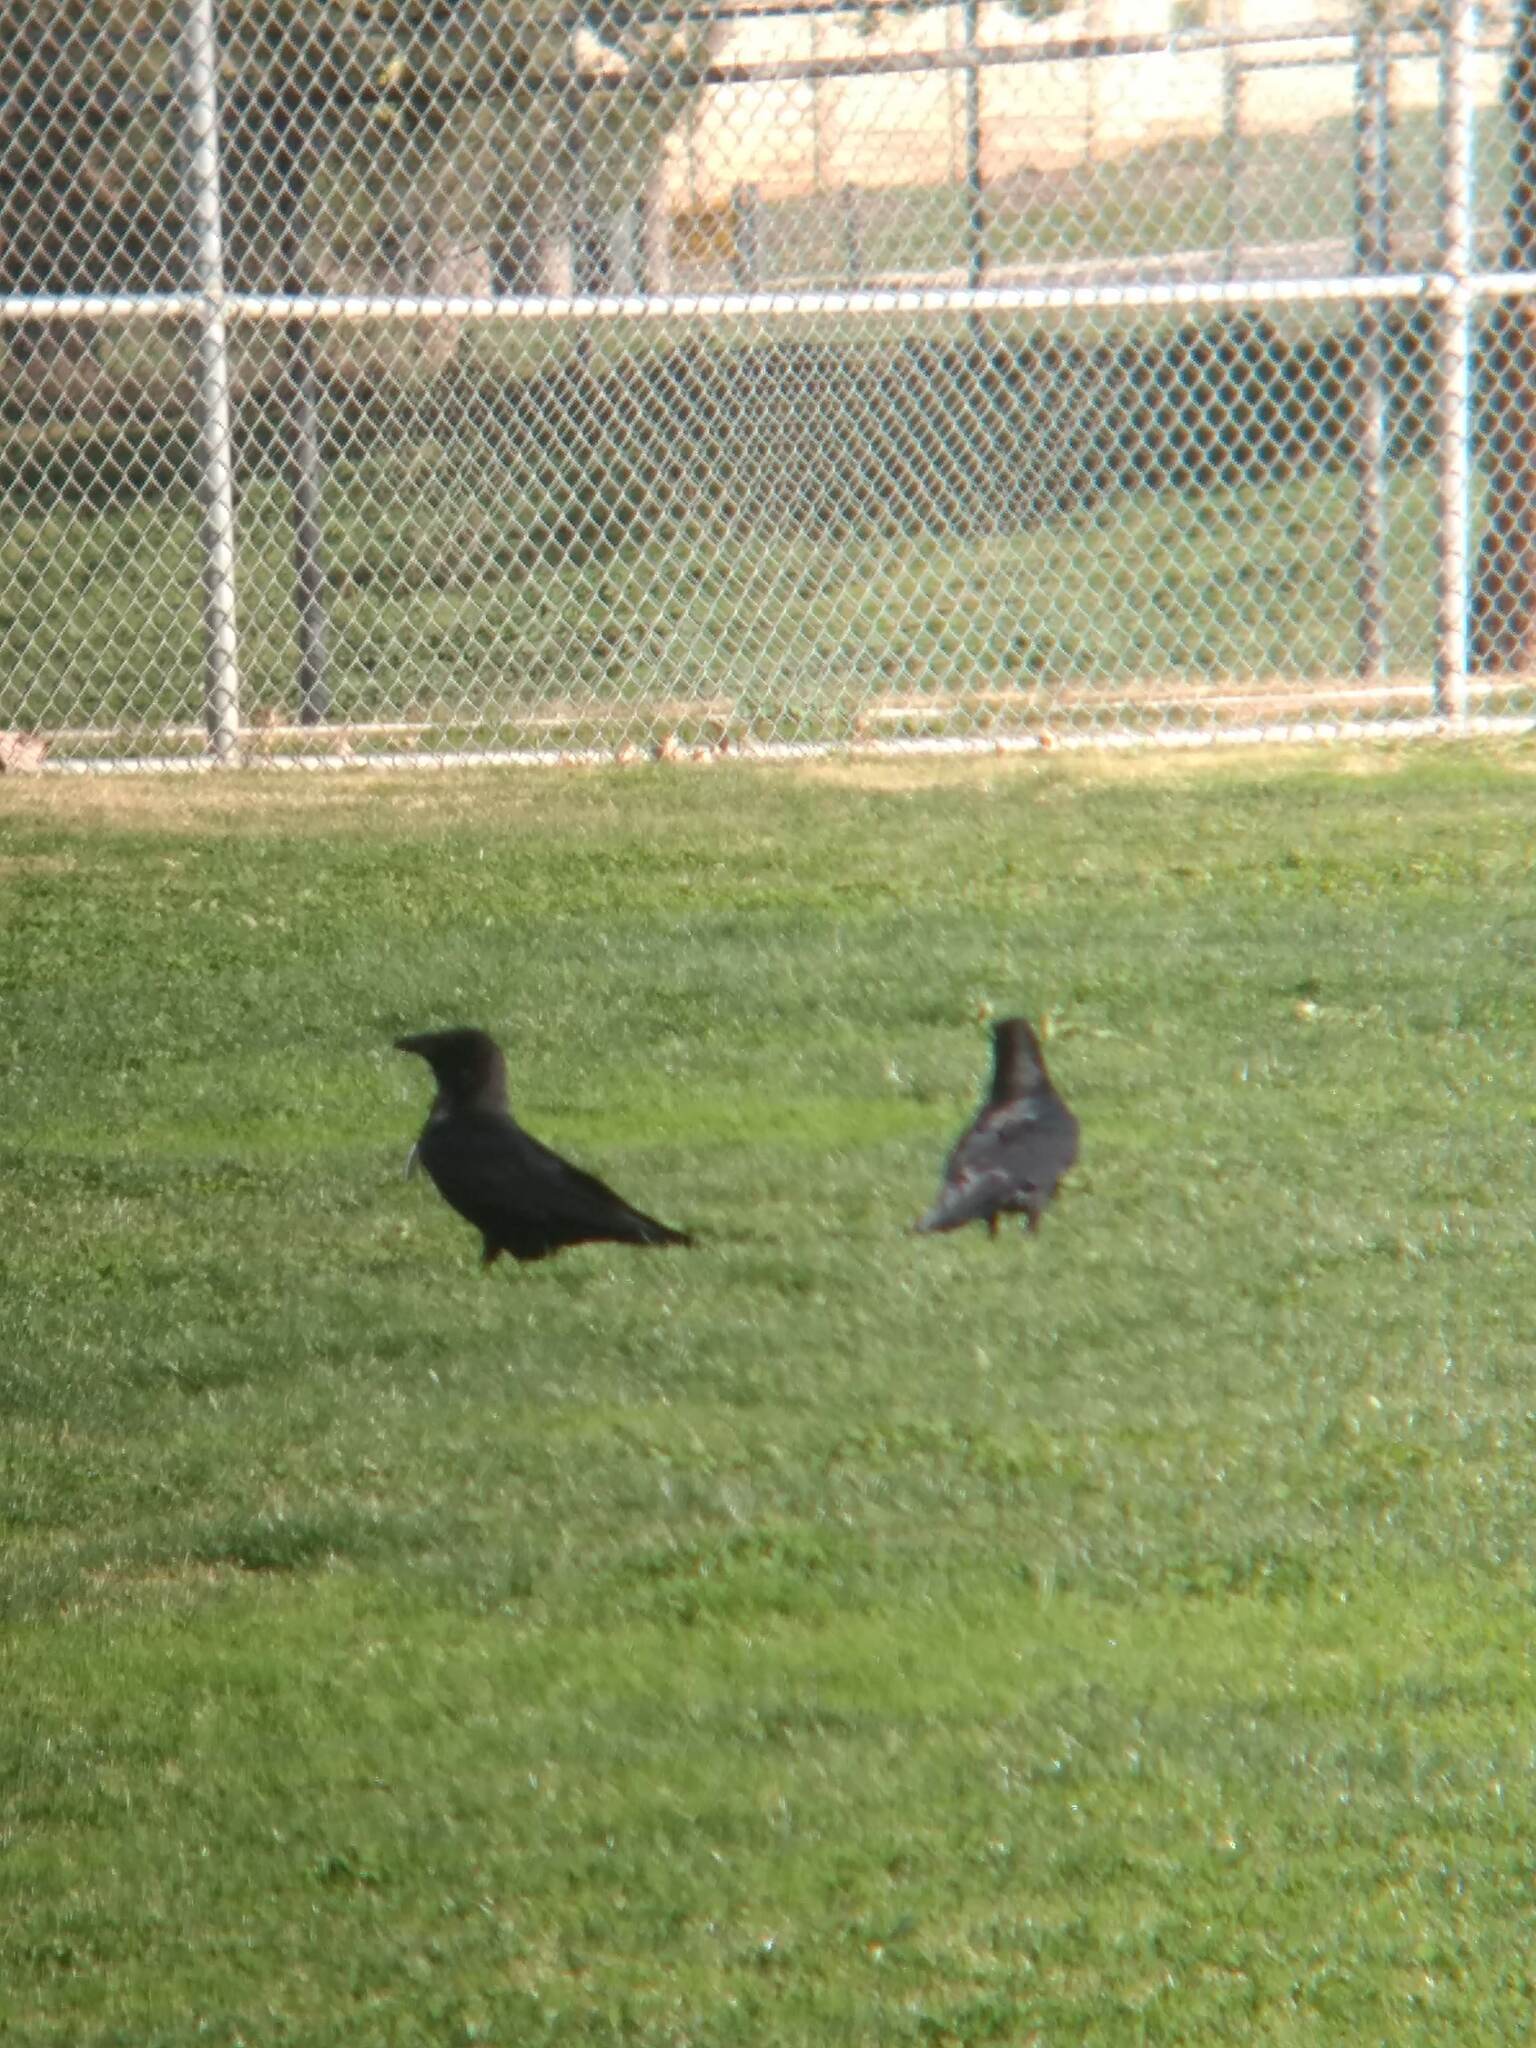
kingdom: Animalia
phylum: Chordata
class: Aves
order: Passeriformes
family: Corvidae
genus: Corvus
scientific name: Corvus corax
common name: Common raven
